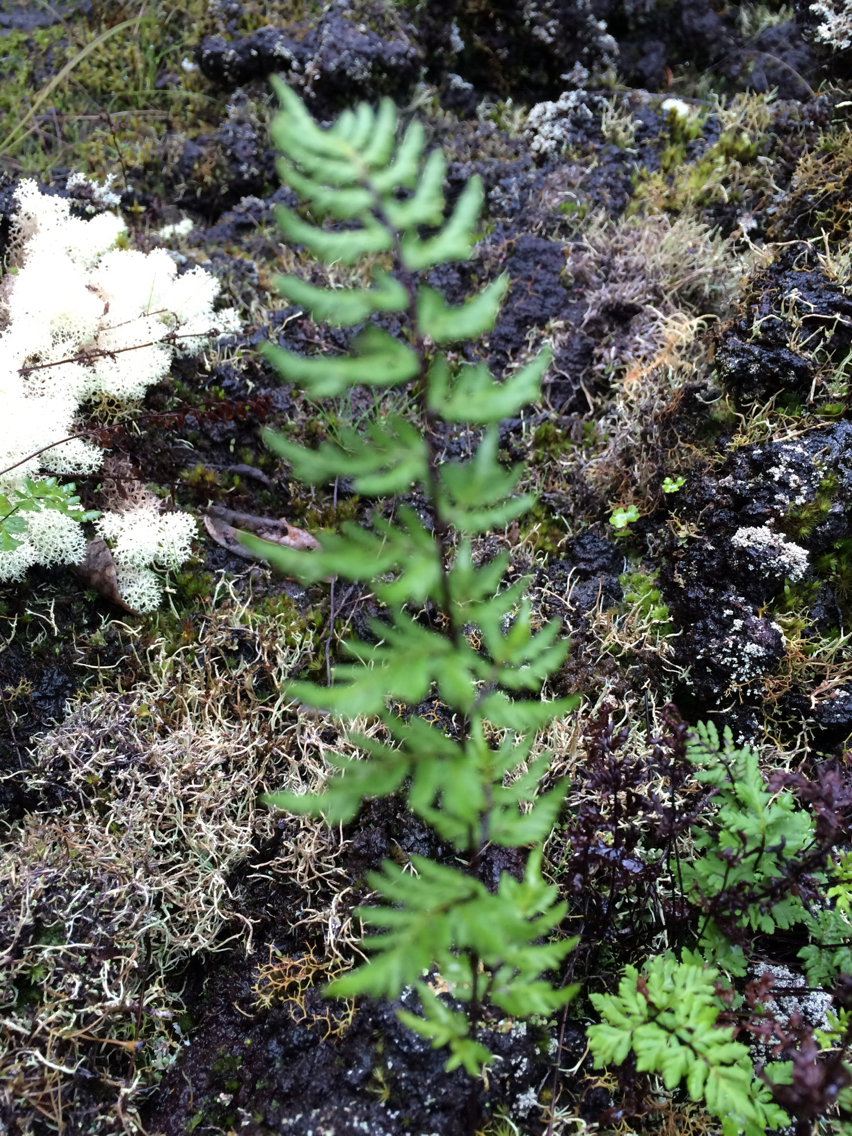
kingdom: Plantae
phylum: Tracheophyta
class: Polypodiopsida
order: Polypodiales
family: Pteridaceae
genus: Cheilanthes
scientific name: Cheilanthes sieberi
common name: Mulga fern
